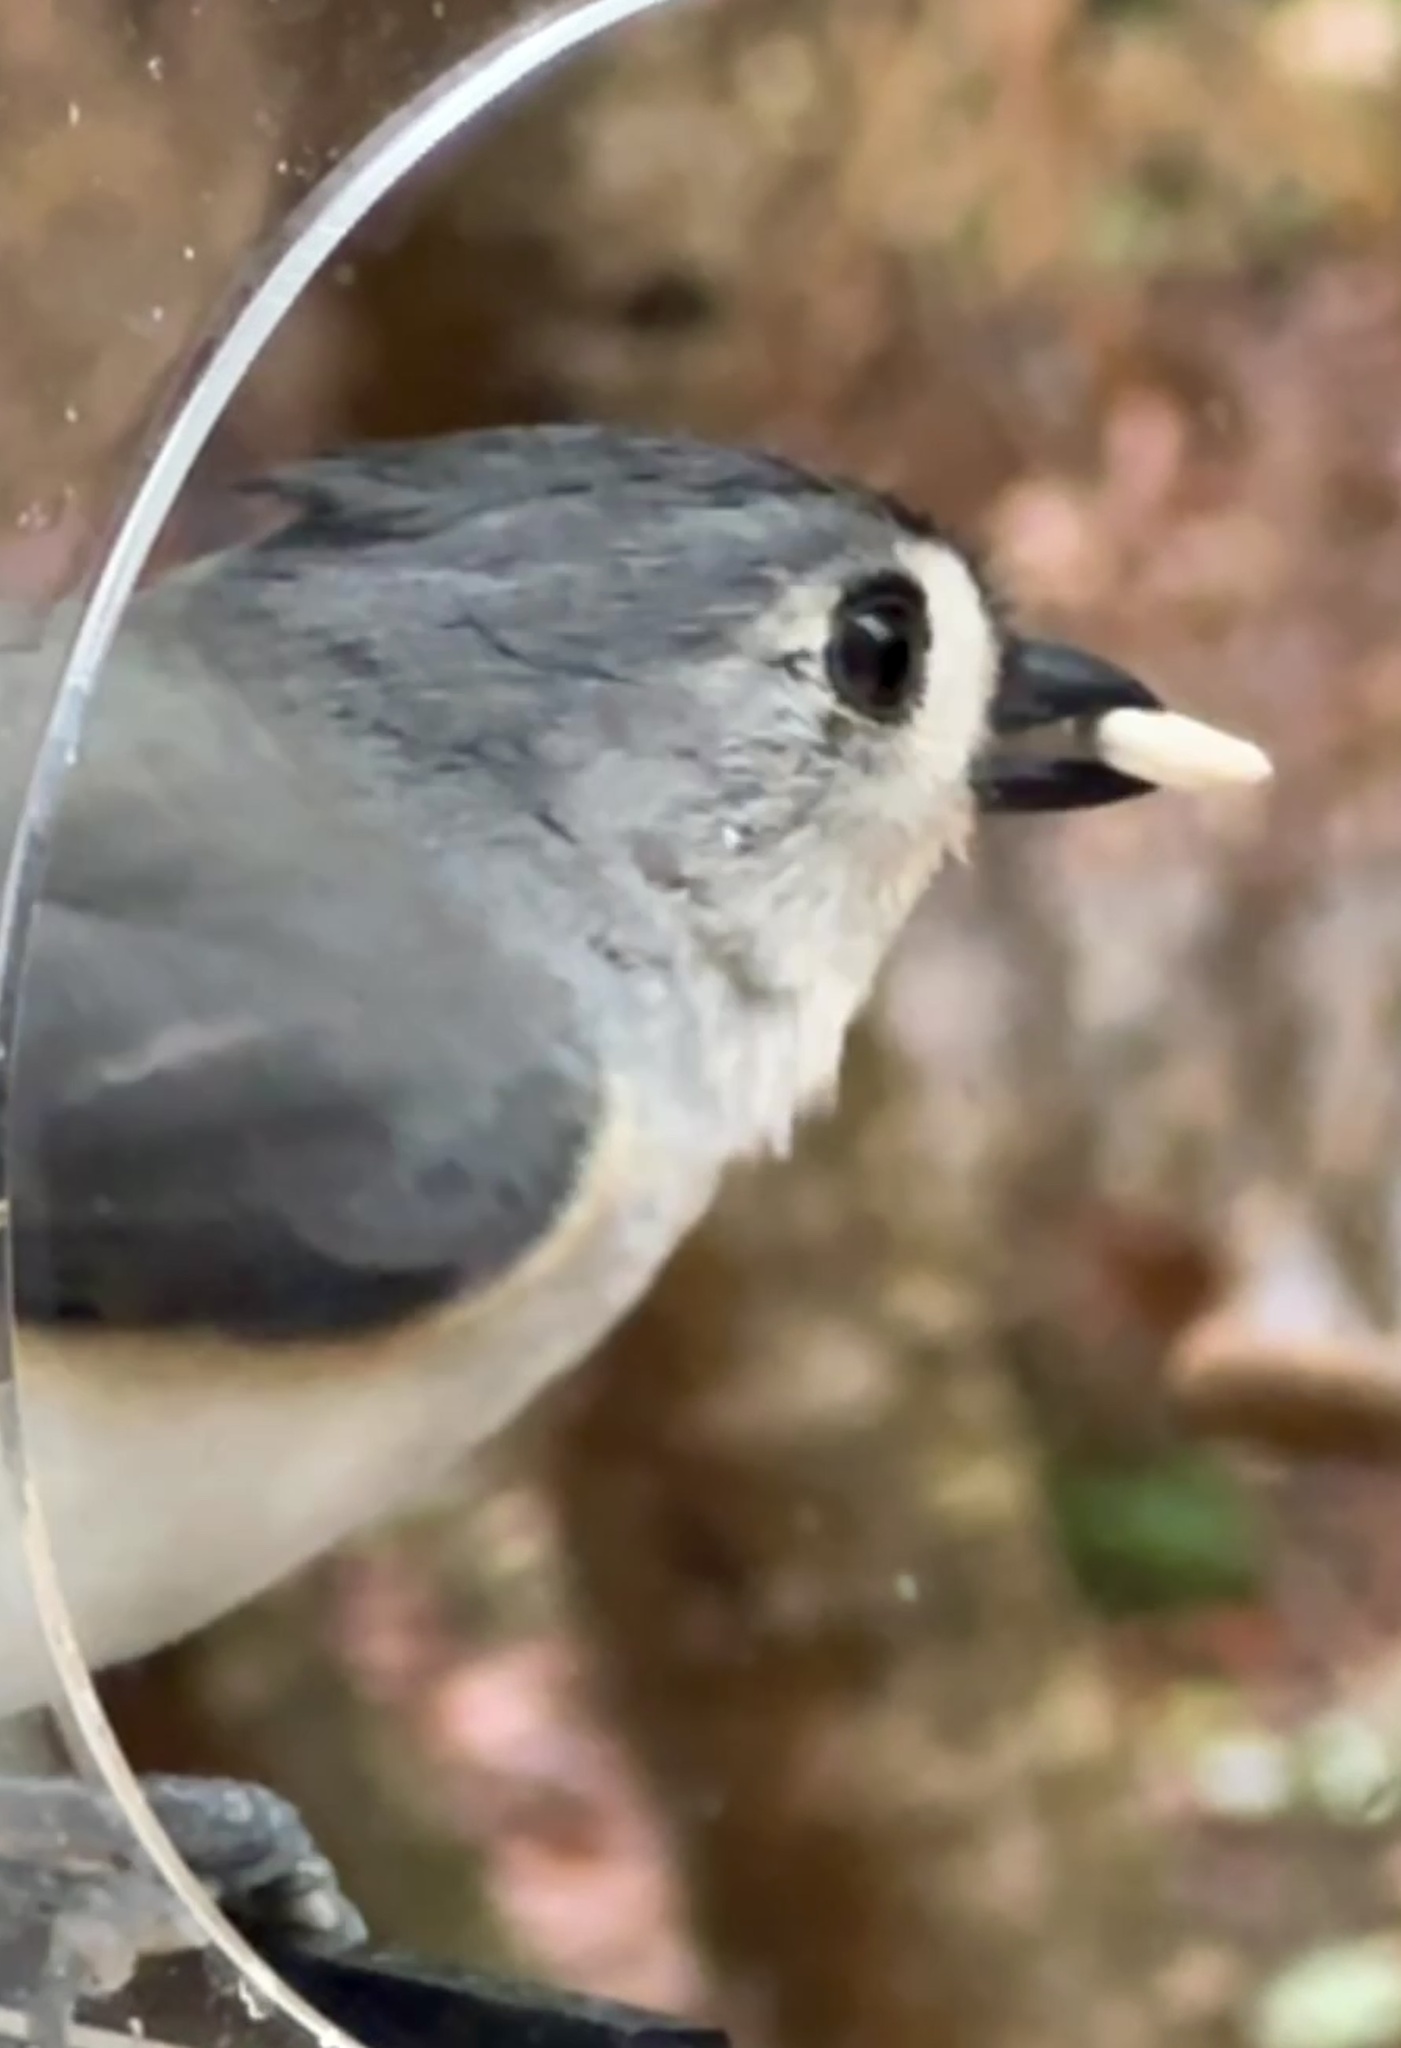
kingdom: Animalia
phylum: Chordata
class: Aves
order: Passeriformes
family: Paridae
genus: Baeolophus
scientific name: Baeolophus bicolor
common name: Tufted titmouse
